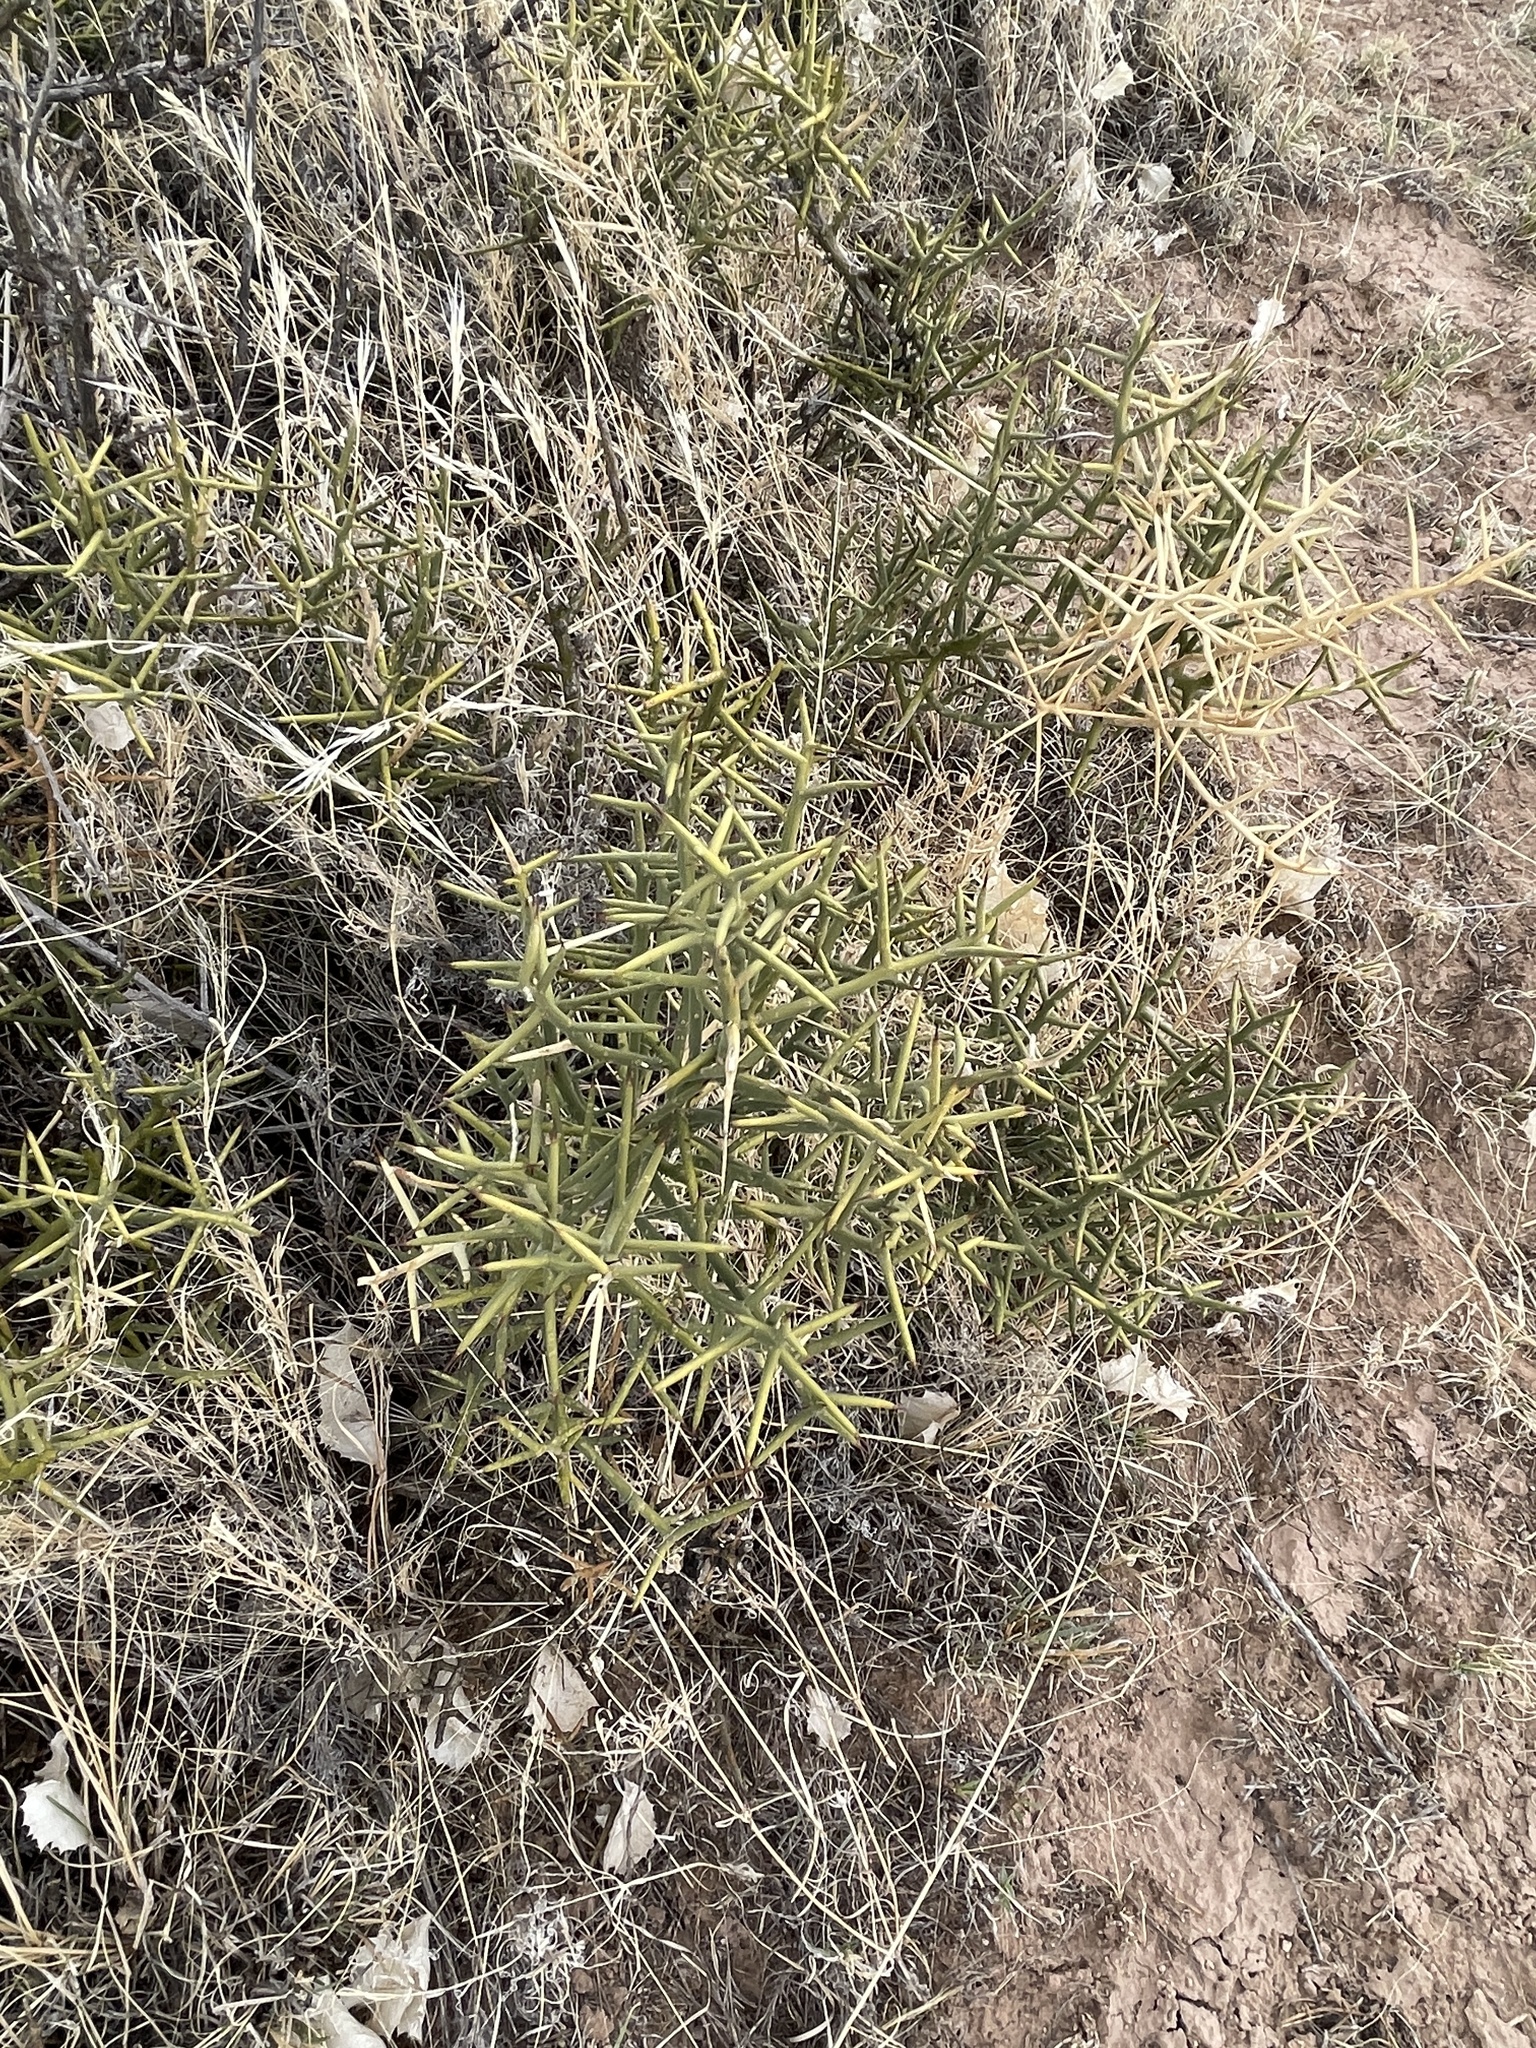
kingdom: Plantae
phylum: Tracheophyta
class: Magnoliopsida
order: Brassicales
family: Koeberliniaceae
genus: Koeberlinia
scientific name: Koeberlinia spinosa
